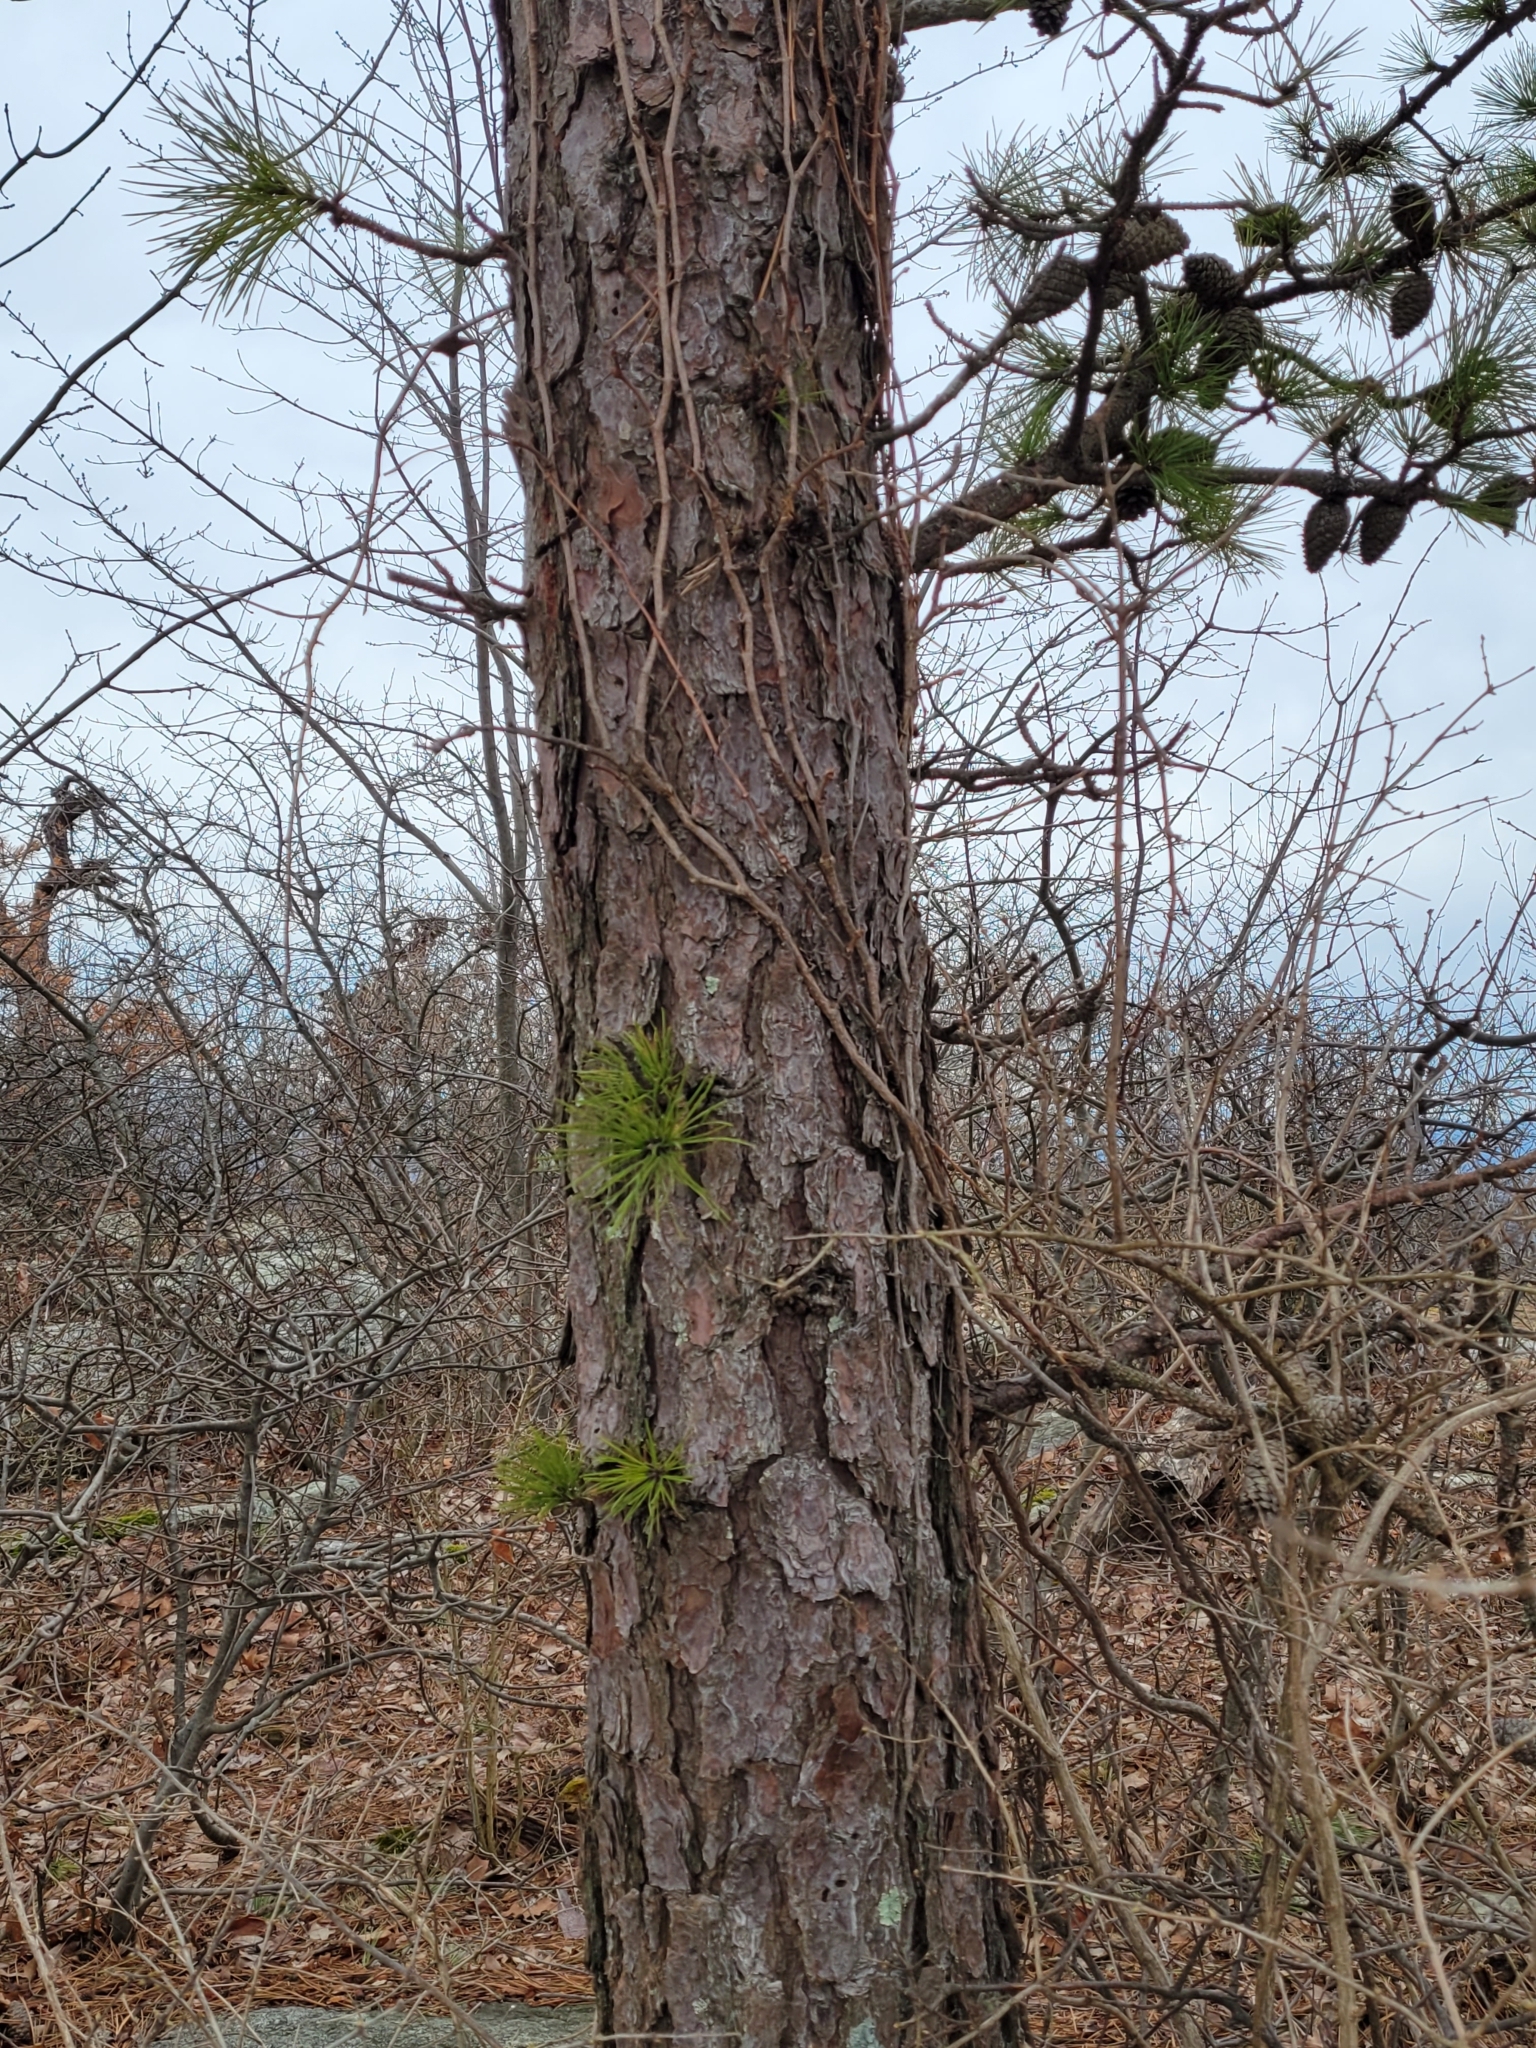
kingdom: Plantae
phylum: Tracheophyta
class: Pinopsida
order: Pinales
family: Pinaceae
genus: Pinus
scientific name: Pinus rigida
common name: Pitch pine
